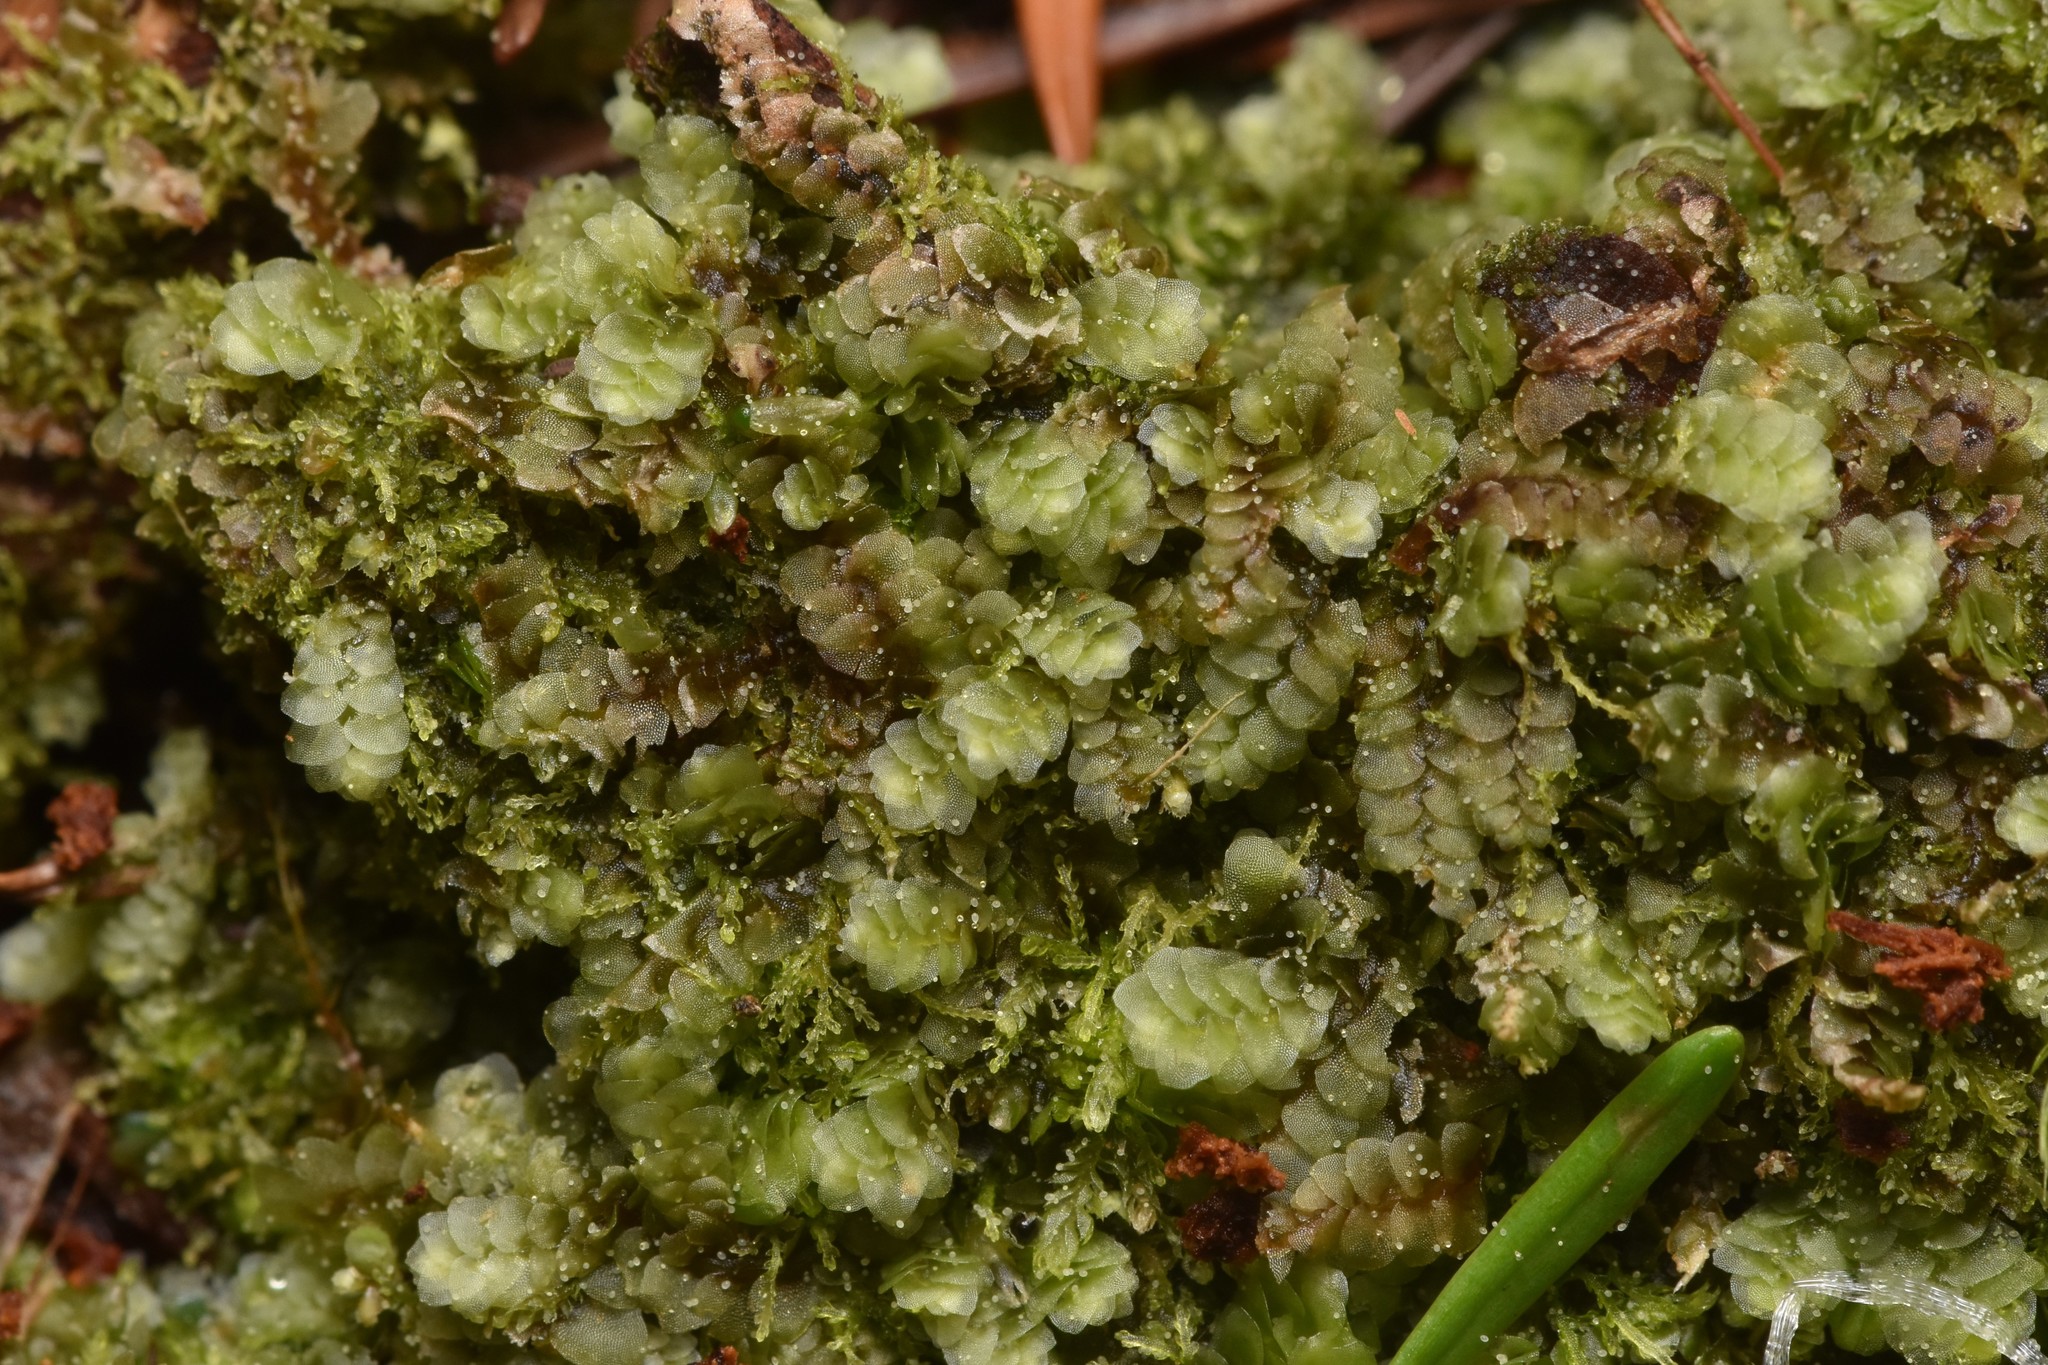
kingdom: Plantae
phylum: Marchantiophyta
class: Jungermanniopsida
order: Jungermanniales
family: Calypogeiaceae
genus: Calypogeia
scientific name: Calypogeia muelleriana
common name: Mueller s pouchwort
